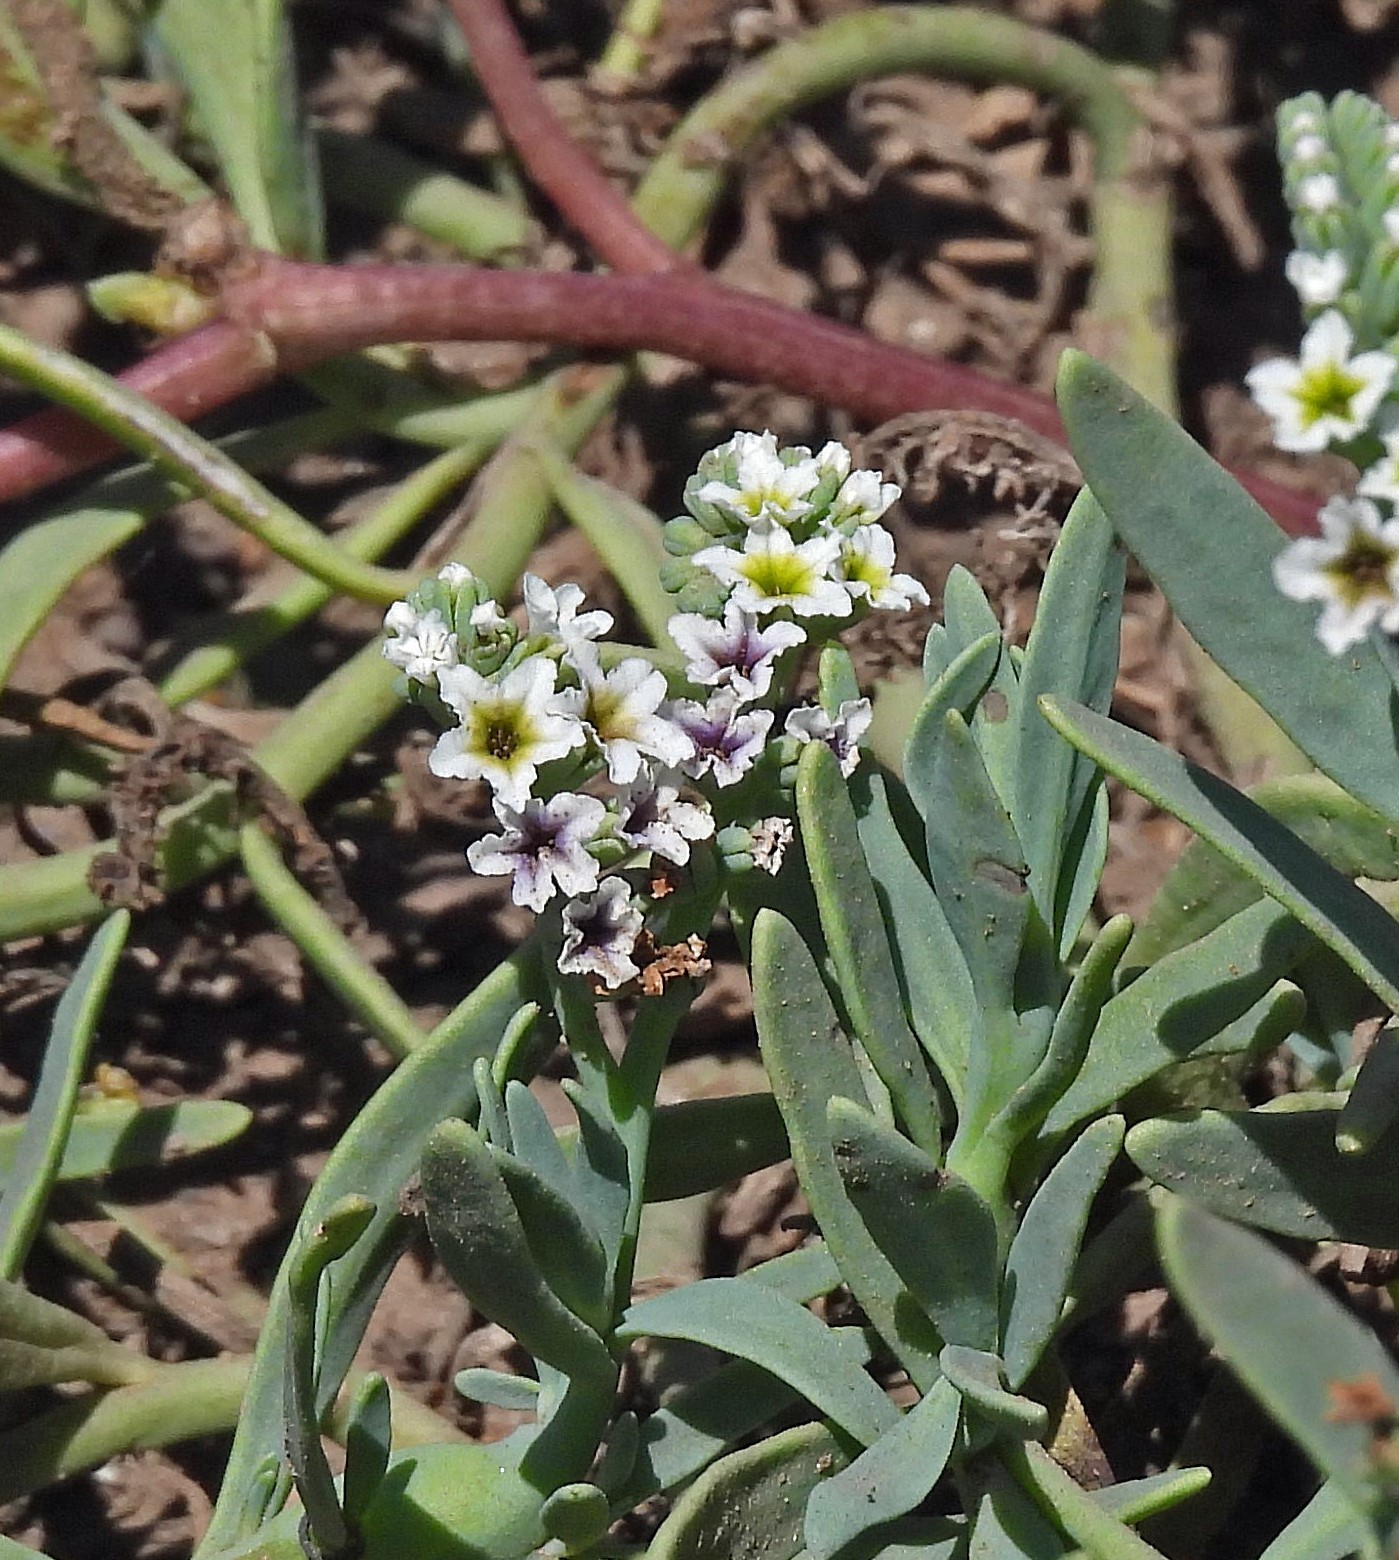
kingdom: Plantae
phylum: Tracheophyta
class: Magnoliopsida
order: Boraginales
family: Heliotropiaceae
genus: Heliotropium
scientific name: Heliotropium curassavicum
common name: Seaside heliotrope
